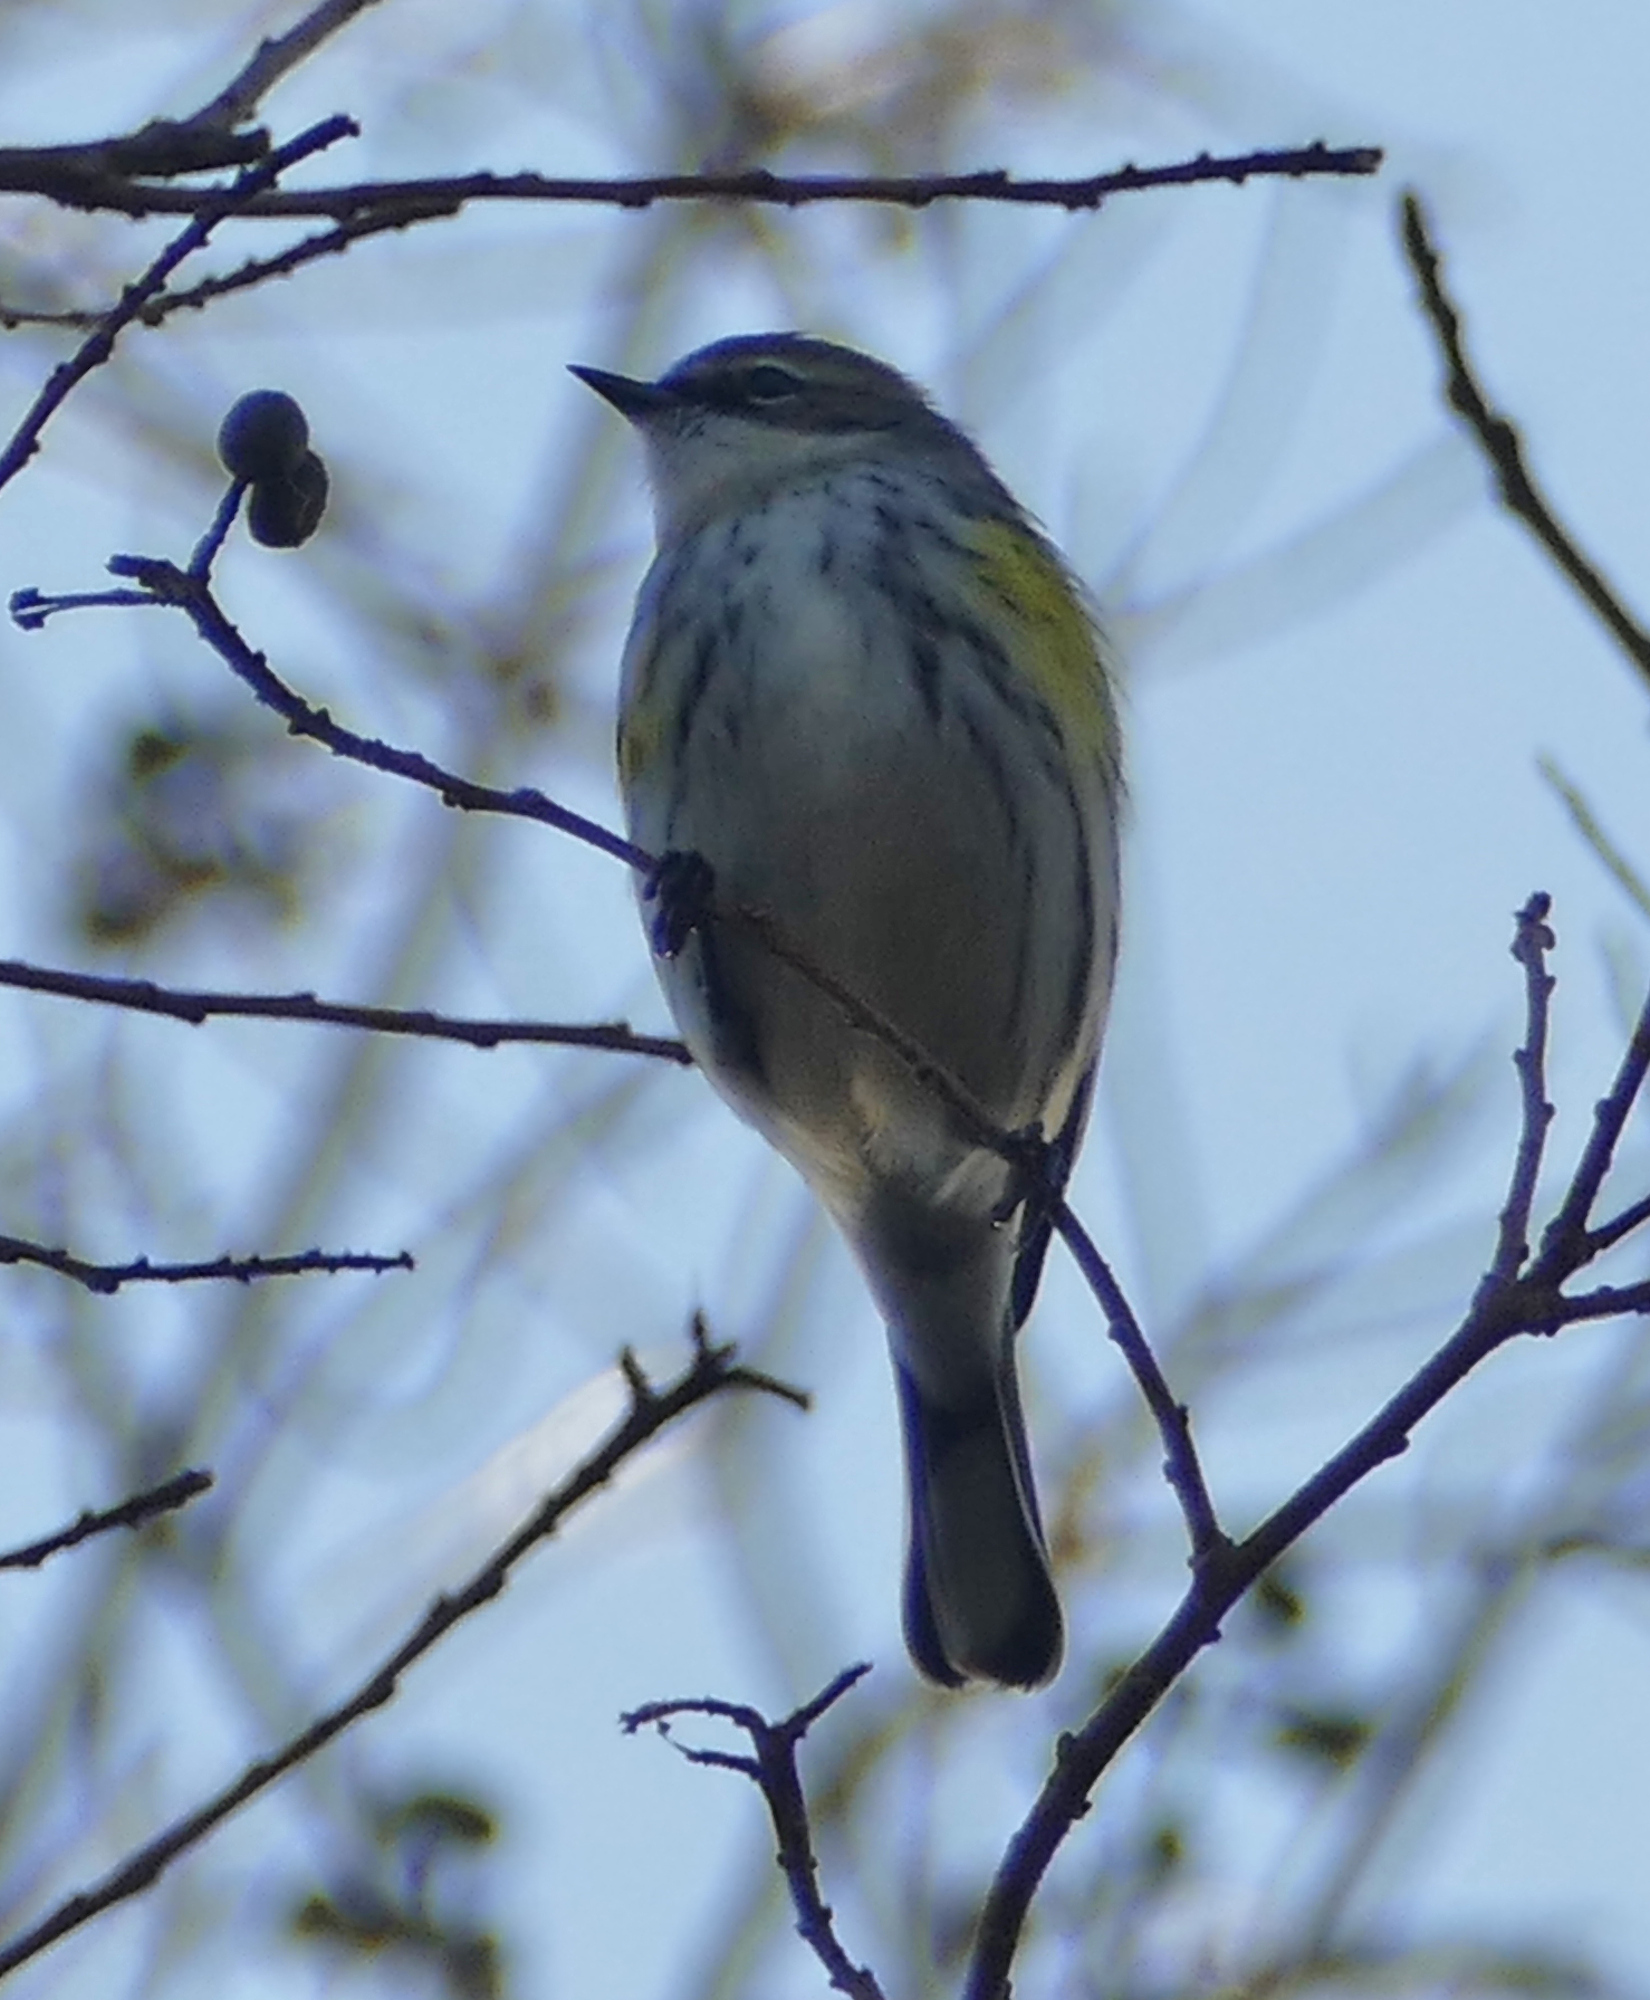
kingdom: Animalia
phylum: Chordata
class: Aves
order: Passeriformes
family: Parulidae
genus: Setophaga
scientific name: Setophaga coronata
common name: Myrtle warbler
